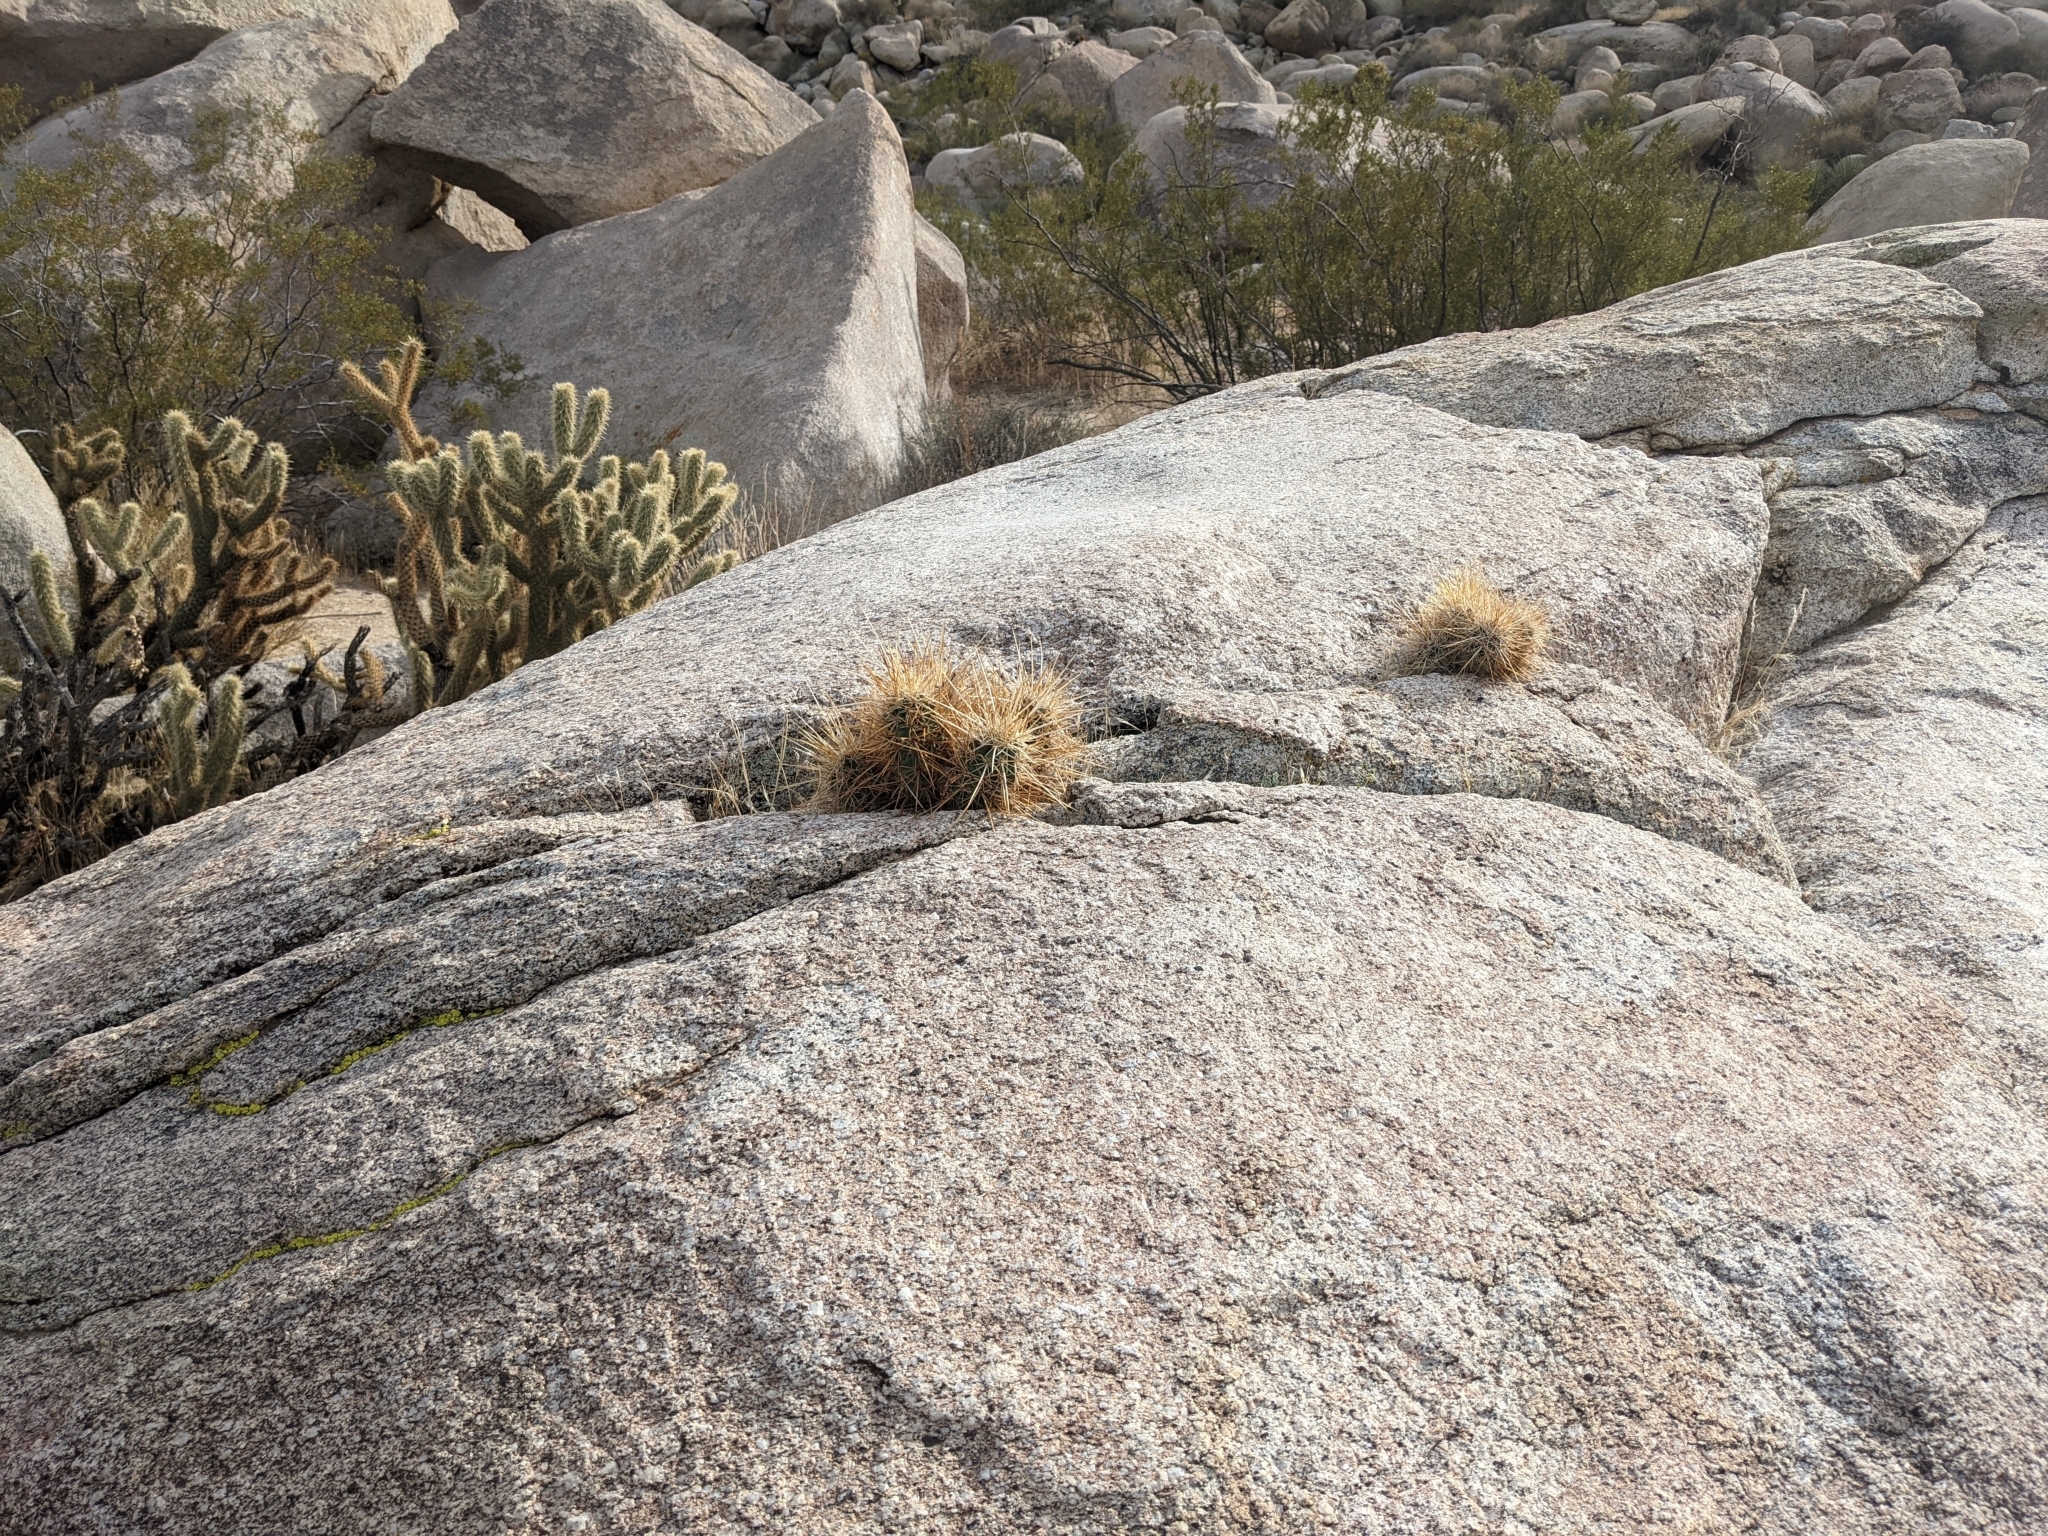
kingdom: Plantae
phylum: Tracheophyta
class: Magnoliopsida
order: Caryophyllales
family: Cactaceae
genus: Echinocereus
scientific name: Echinocereus engelmannii
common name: Engelmann's hedgehog cactus
